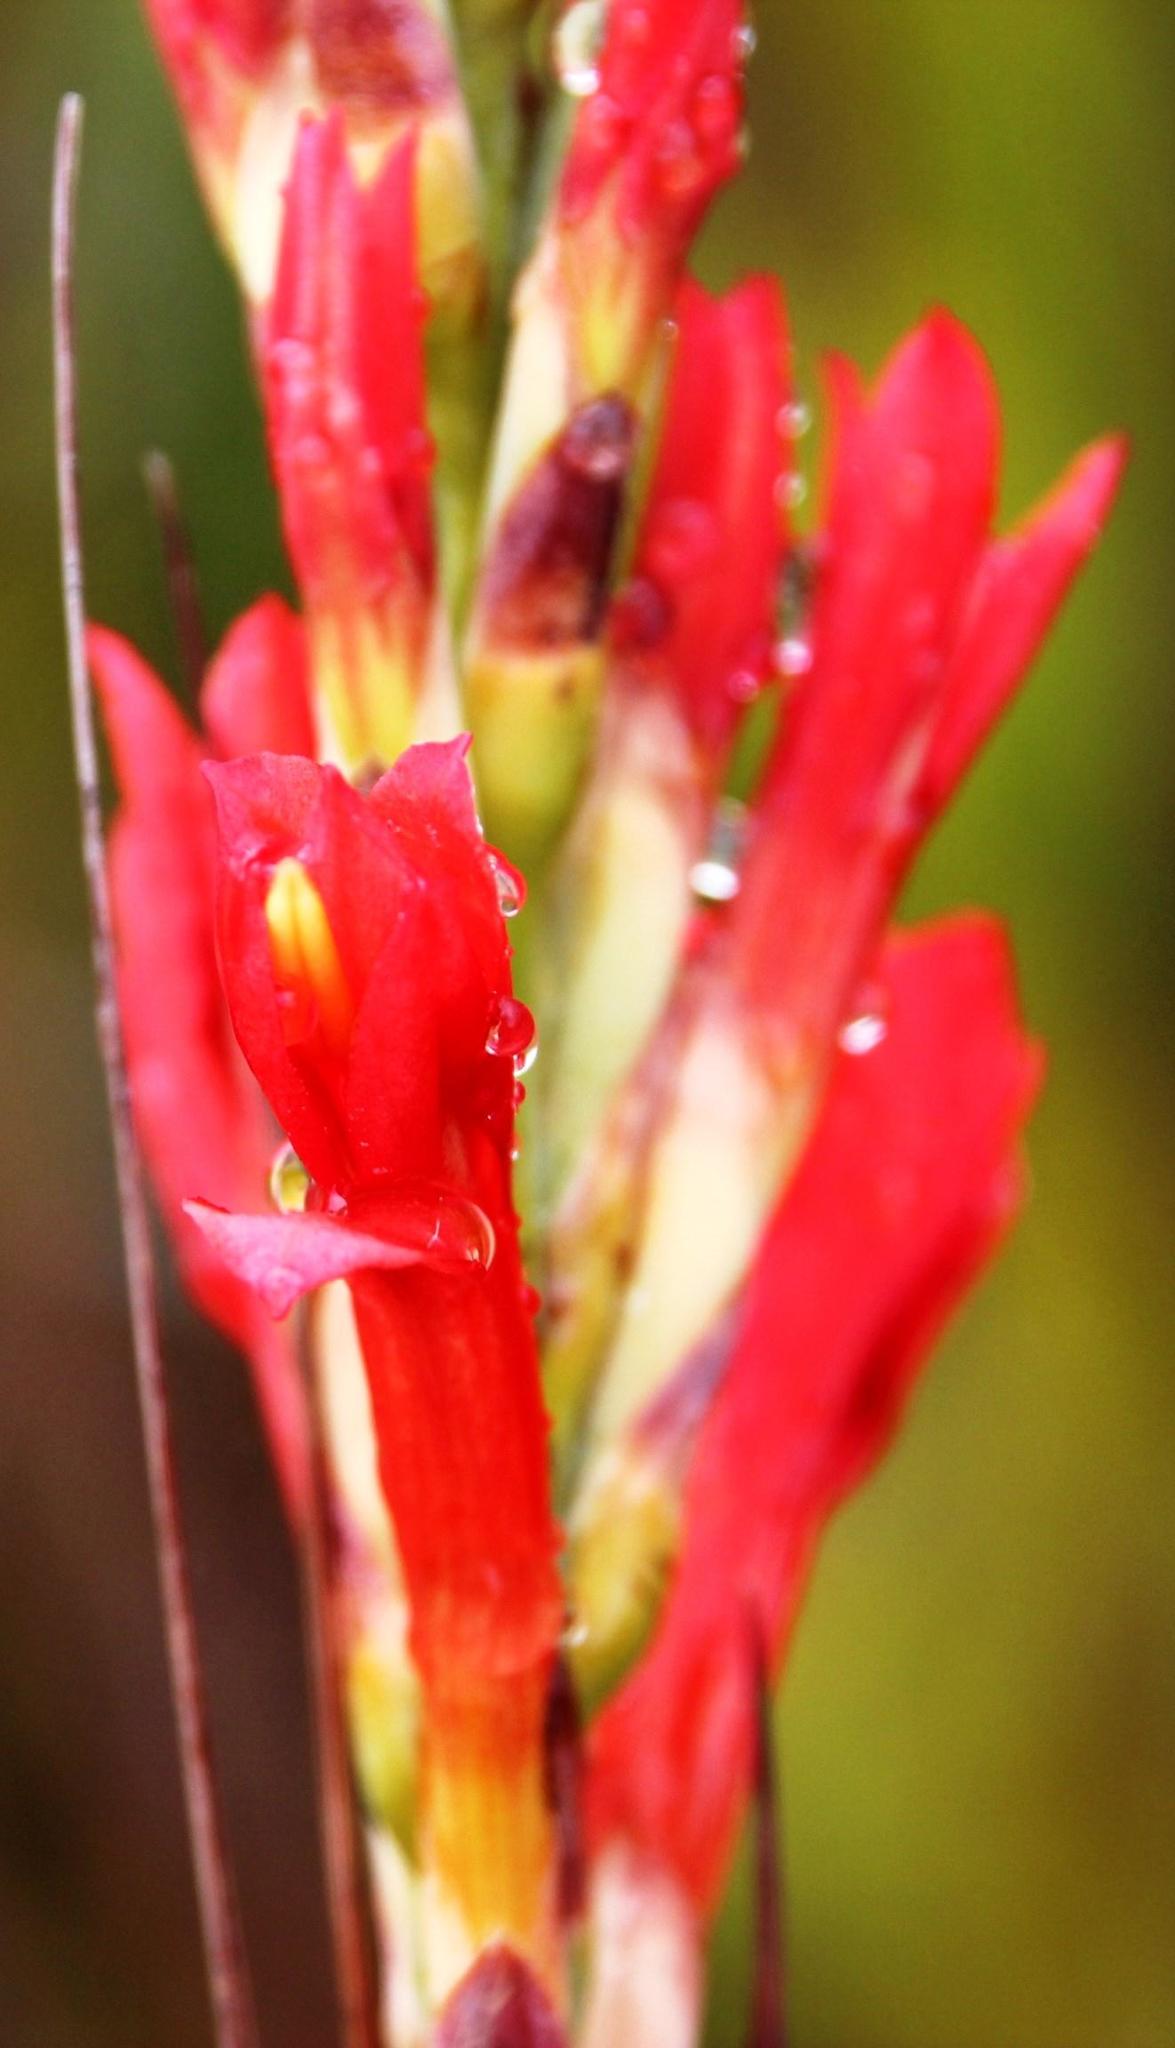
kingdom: Plantae
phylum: Tracheophyta
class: Liliopsida
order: Asparagales
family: Iridaceae
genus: Tritoniopsis
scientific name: Tritoniopsis triticea
